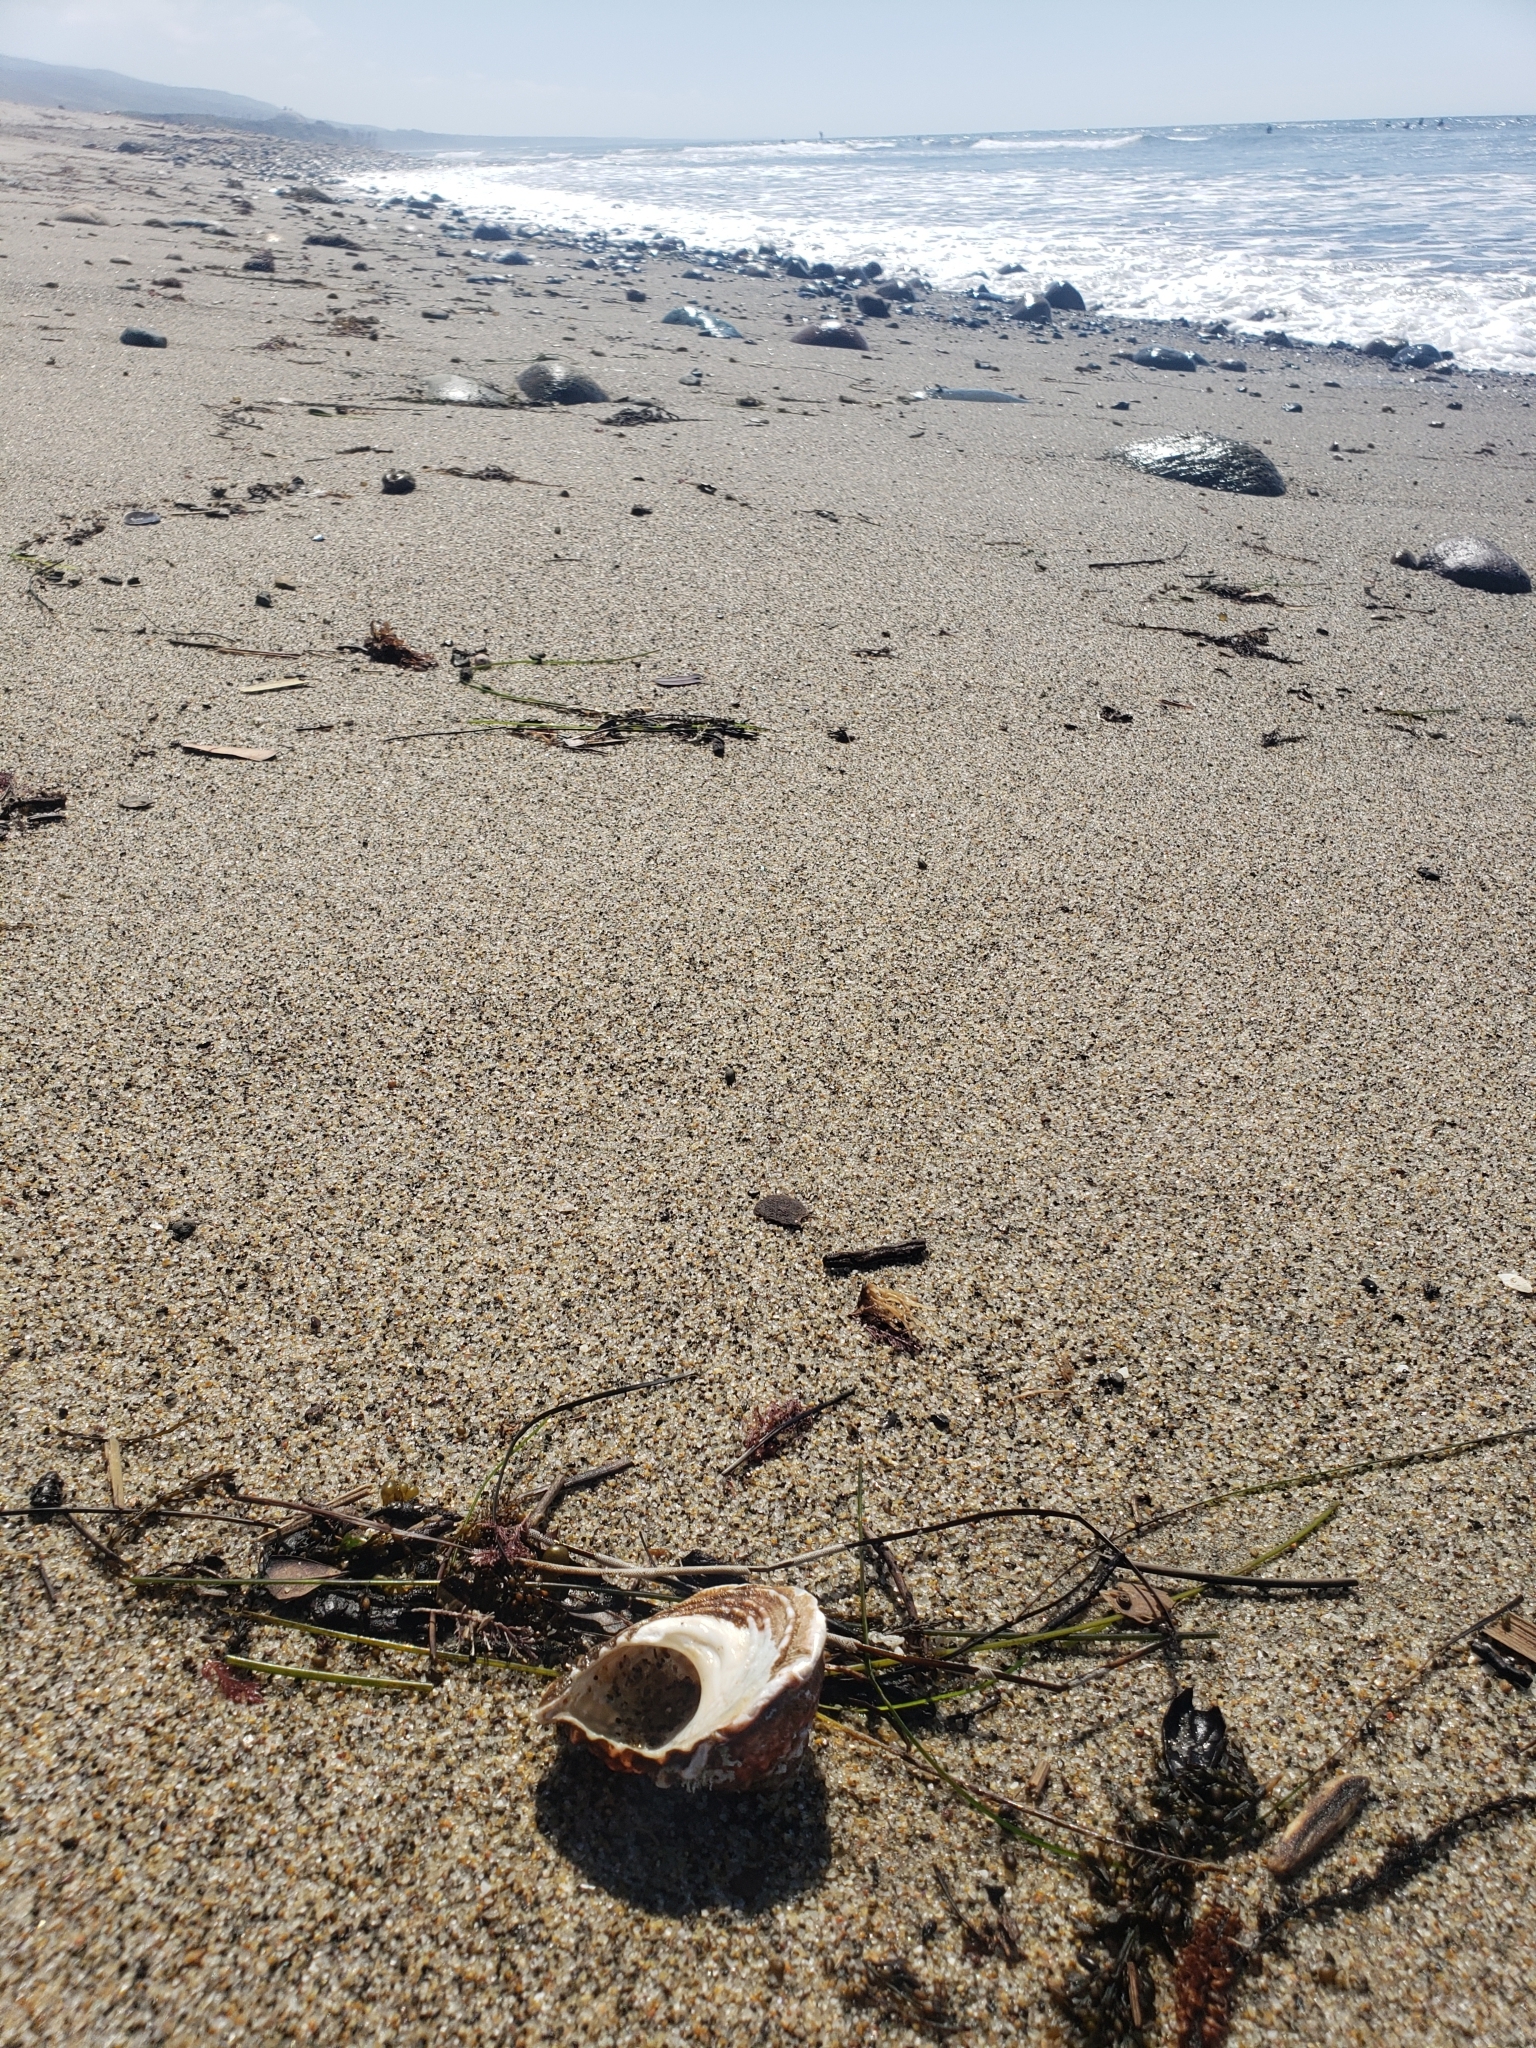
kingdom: Animalia
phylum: Mollusca
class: Gastropoda
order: Trochida
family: Turbinidae
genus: Megastraea
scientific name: Megastraea undosa
